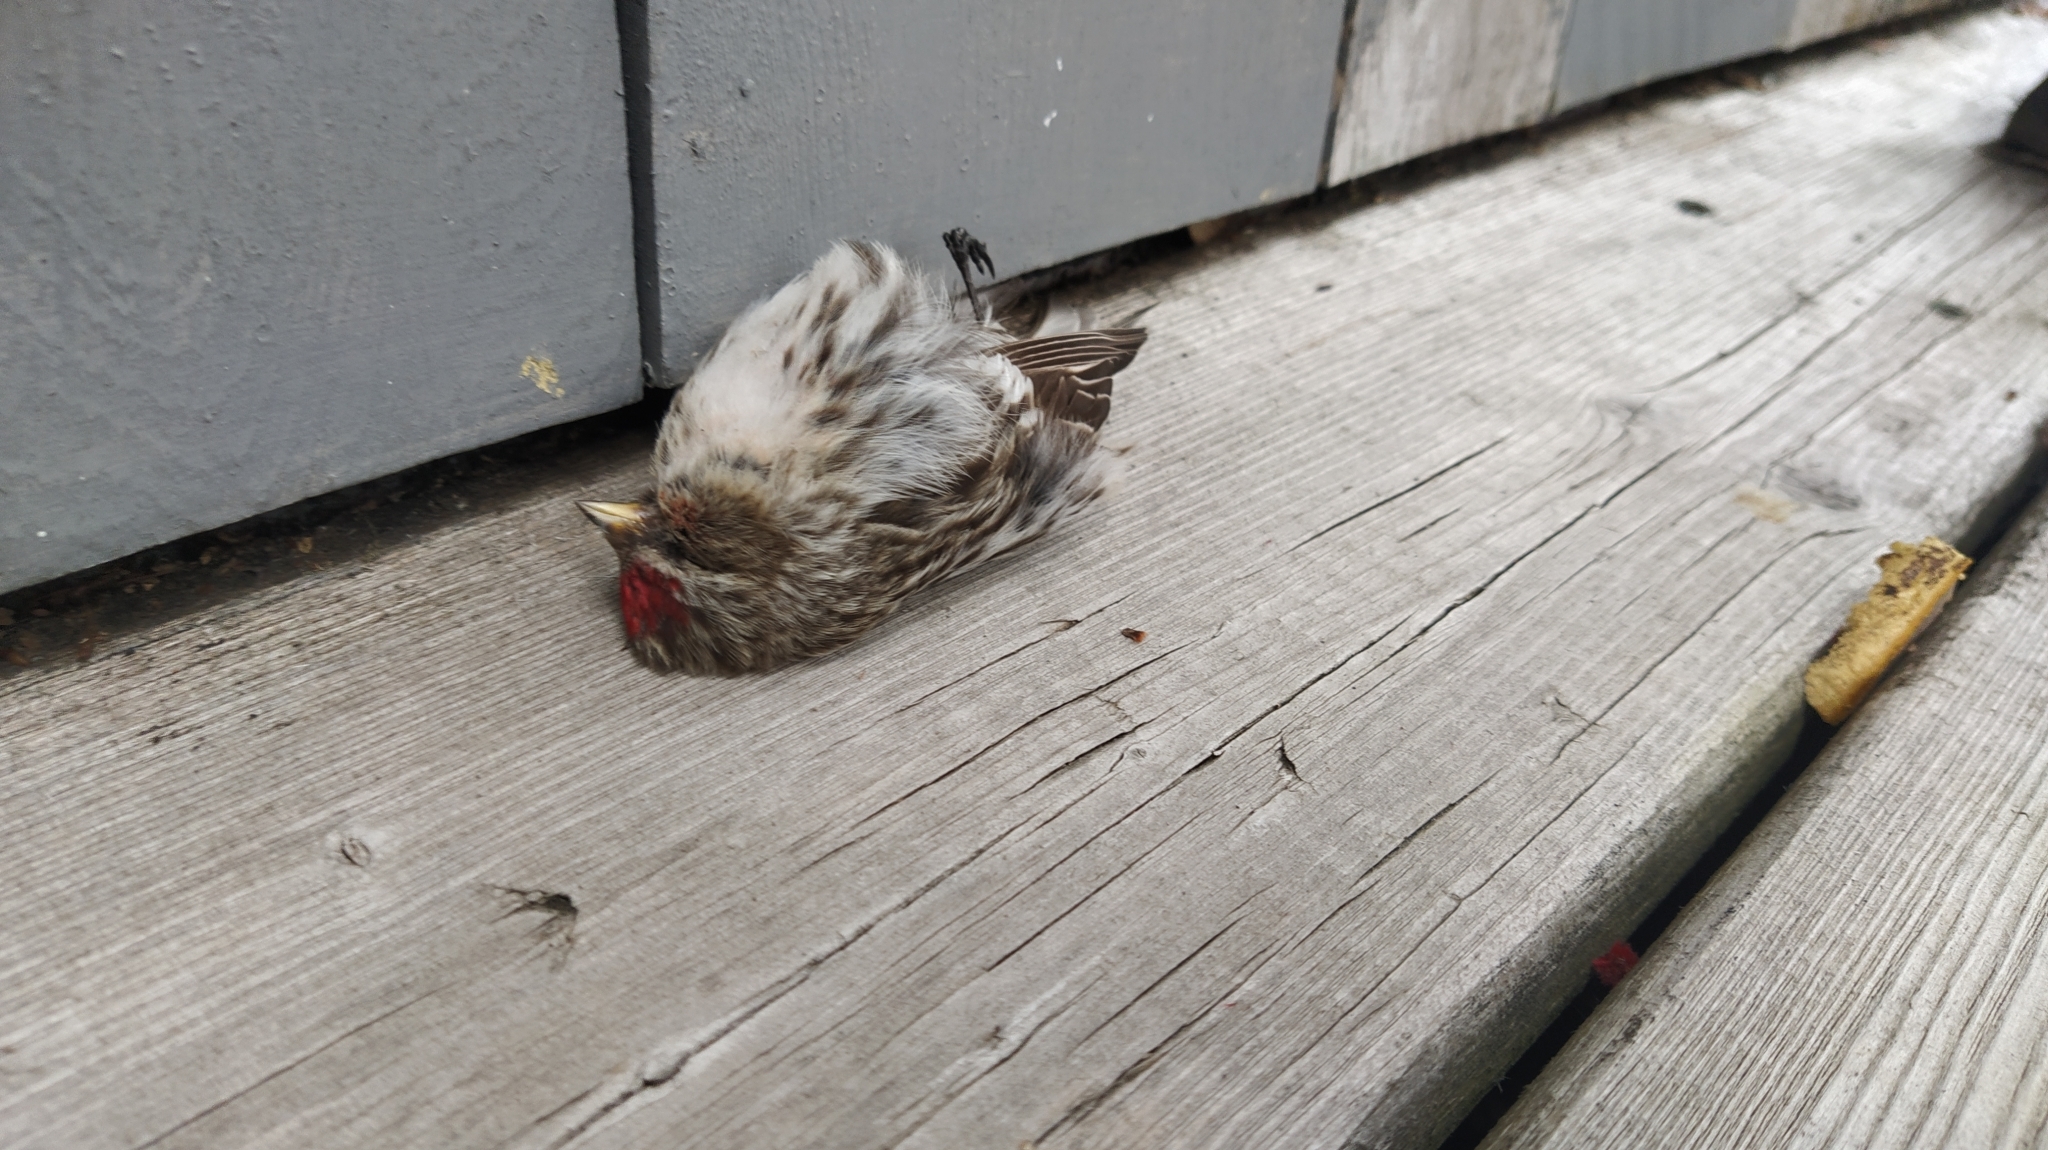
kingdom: Animalia
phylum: Chordata
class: Aves
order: Passeriformes
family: Fringillidae
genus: Acanthis
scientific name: Acanthis flammea
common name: Common redpoll
